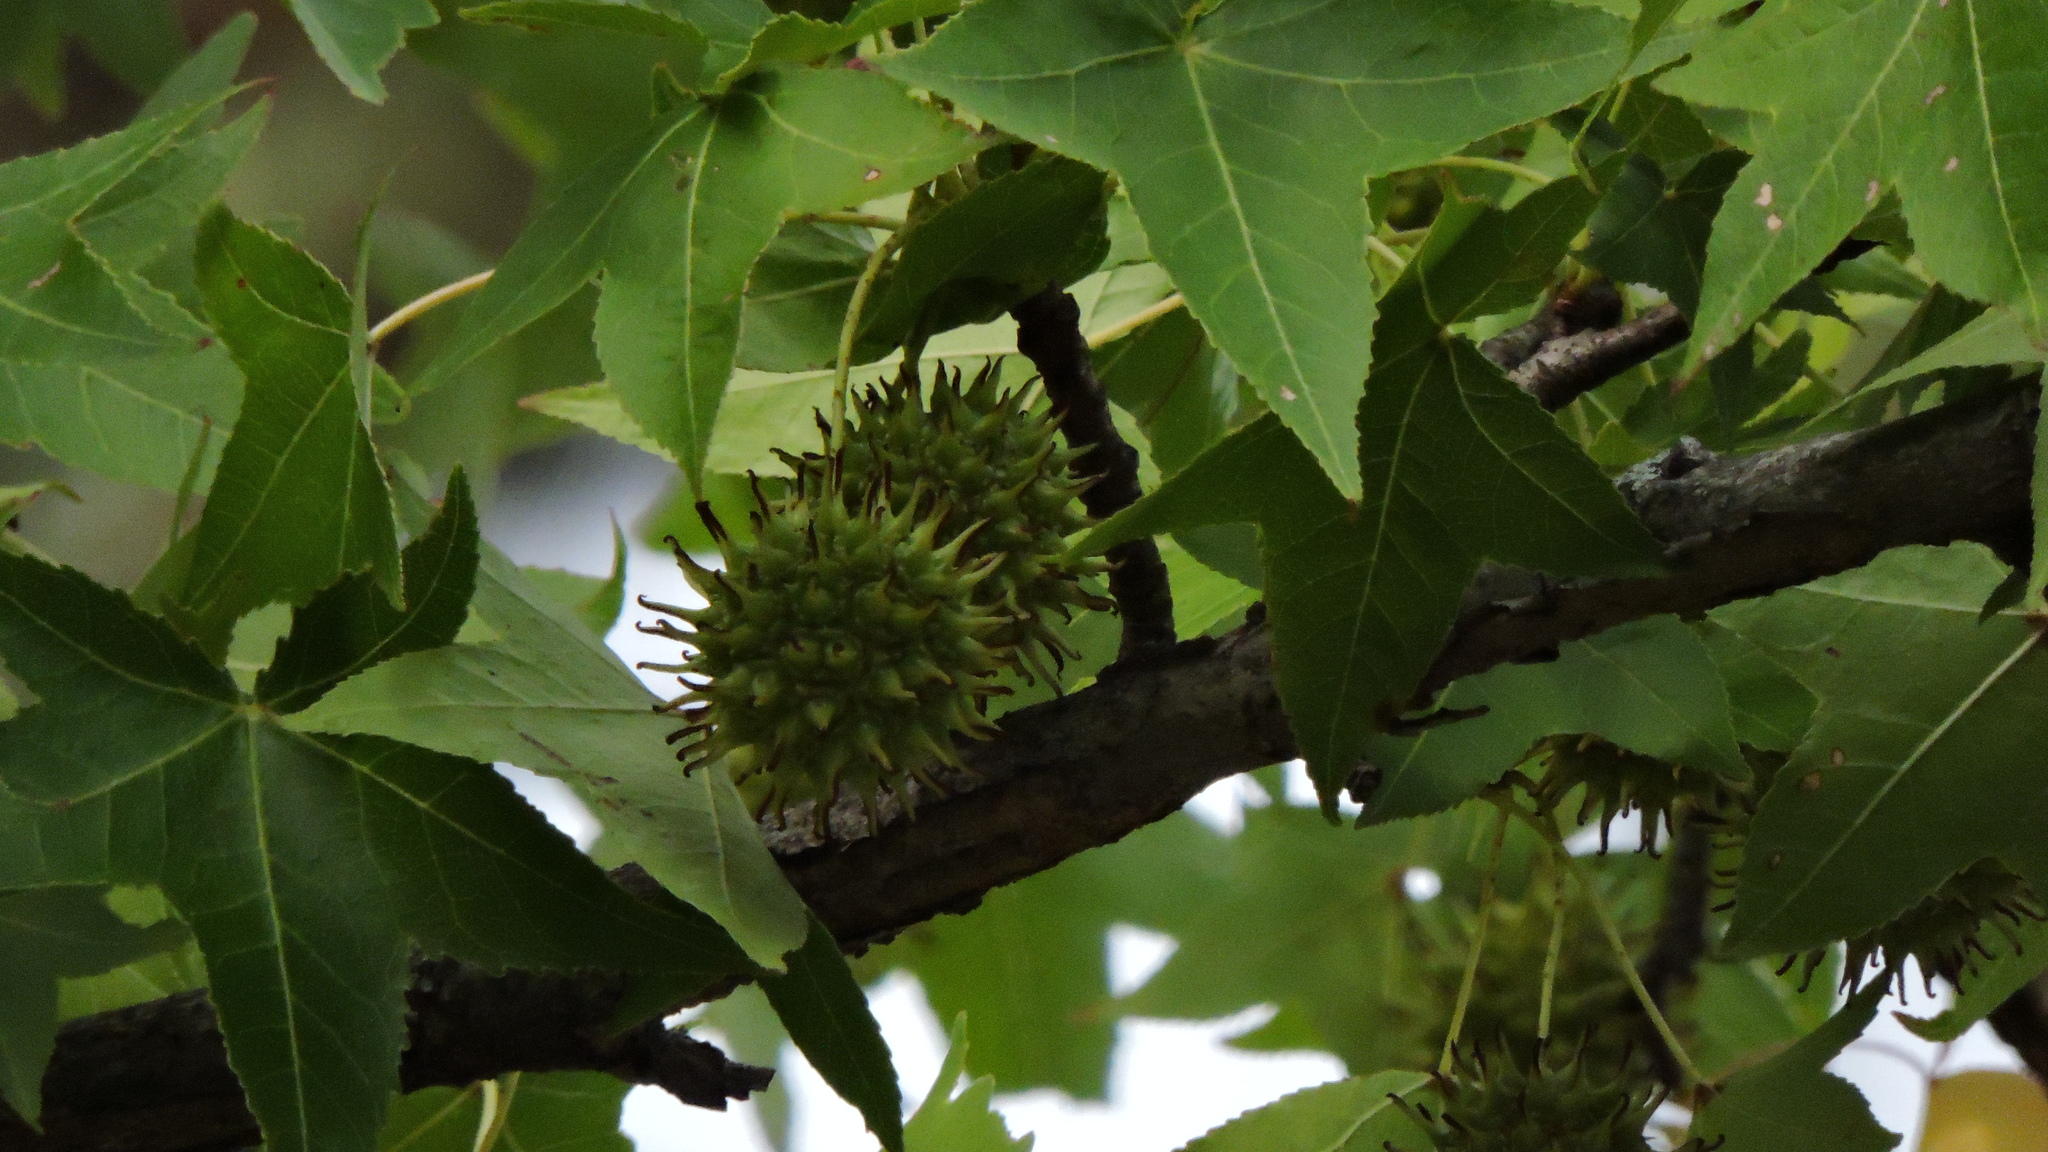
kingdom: Plantae
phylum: Tracheophyta
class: Magnoliopsida
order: Saxifragales
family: Altingiaceae
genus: Liquidambar
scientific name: Liquidambar styraciflua
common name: Sweet gum
